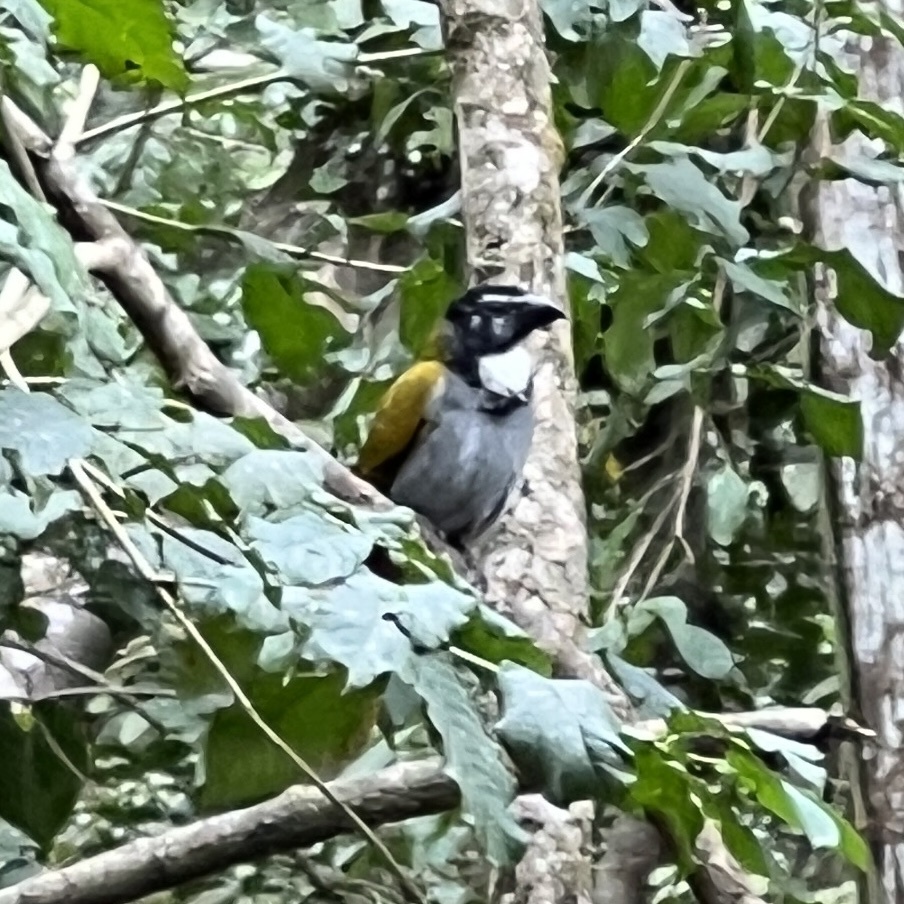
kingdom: Animalia
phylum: Chordata
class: Aves
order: Passeriformes
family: Thraupidae
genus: Saltator
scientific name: Saltator atriceps
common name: Black-headed saltator
